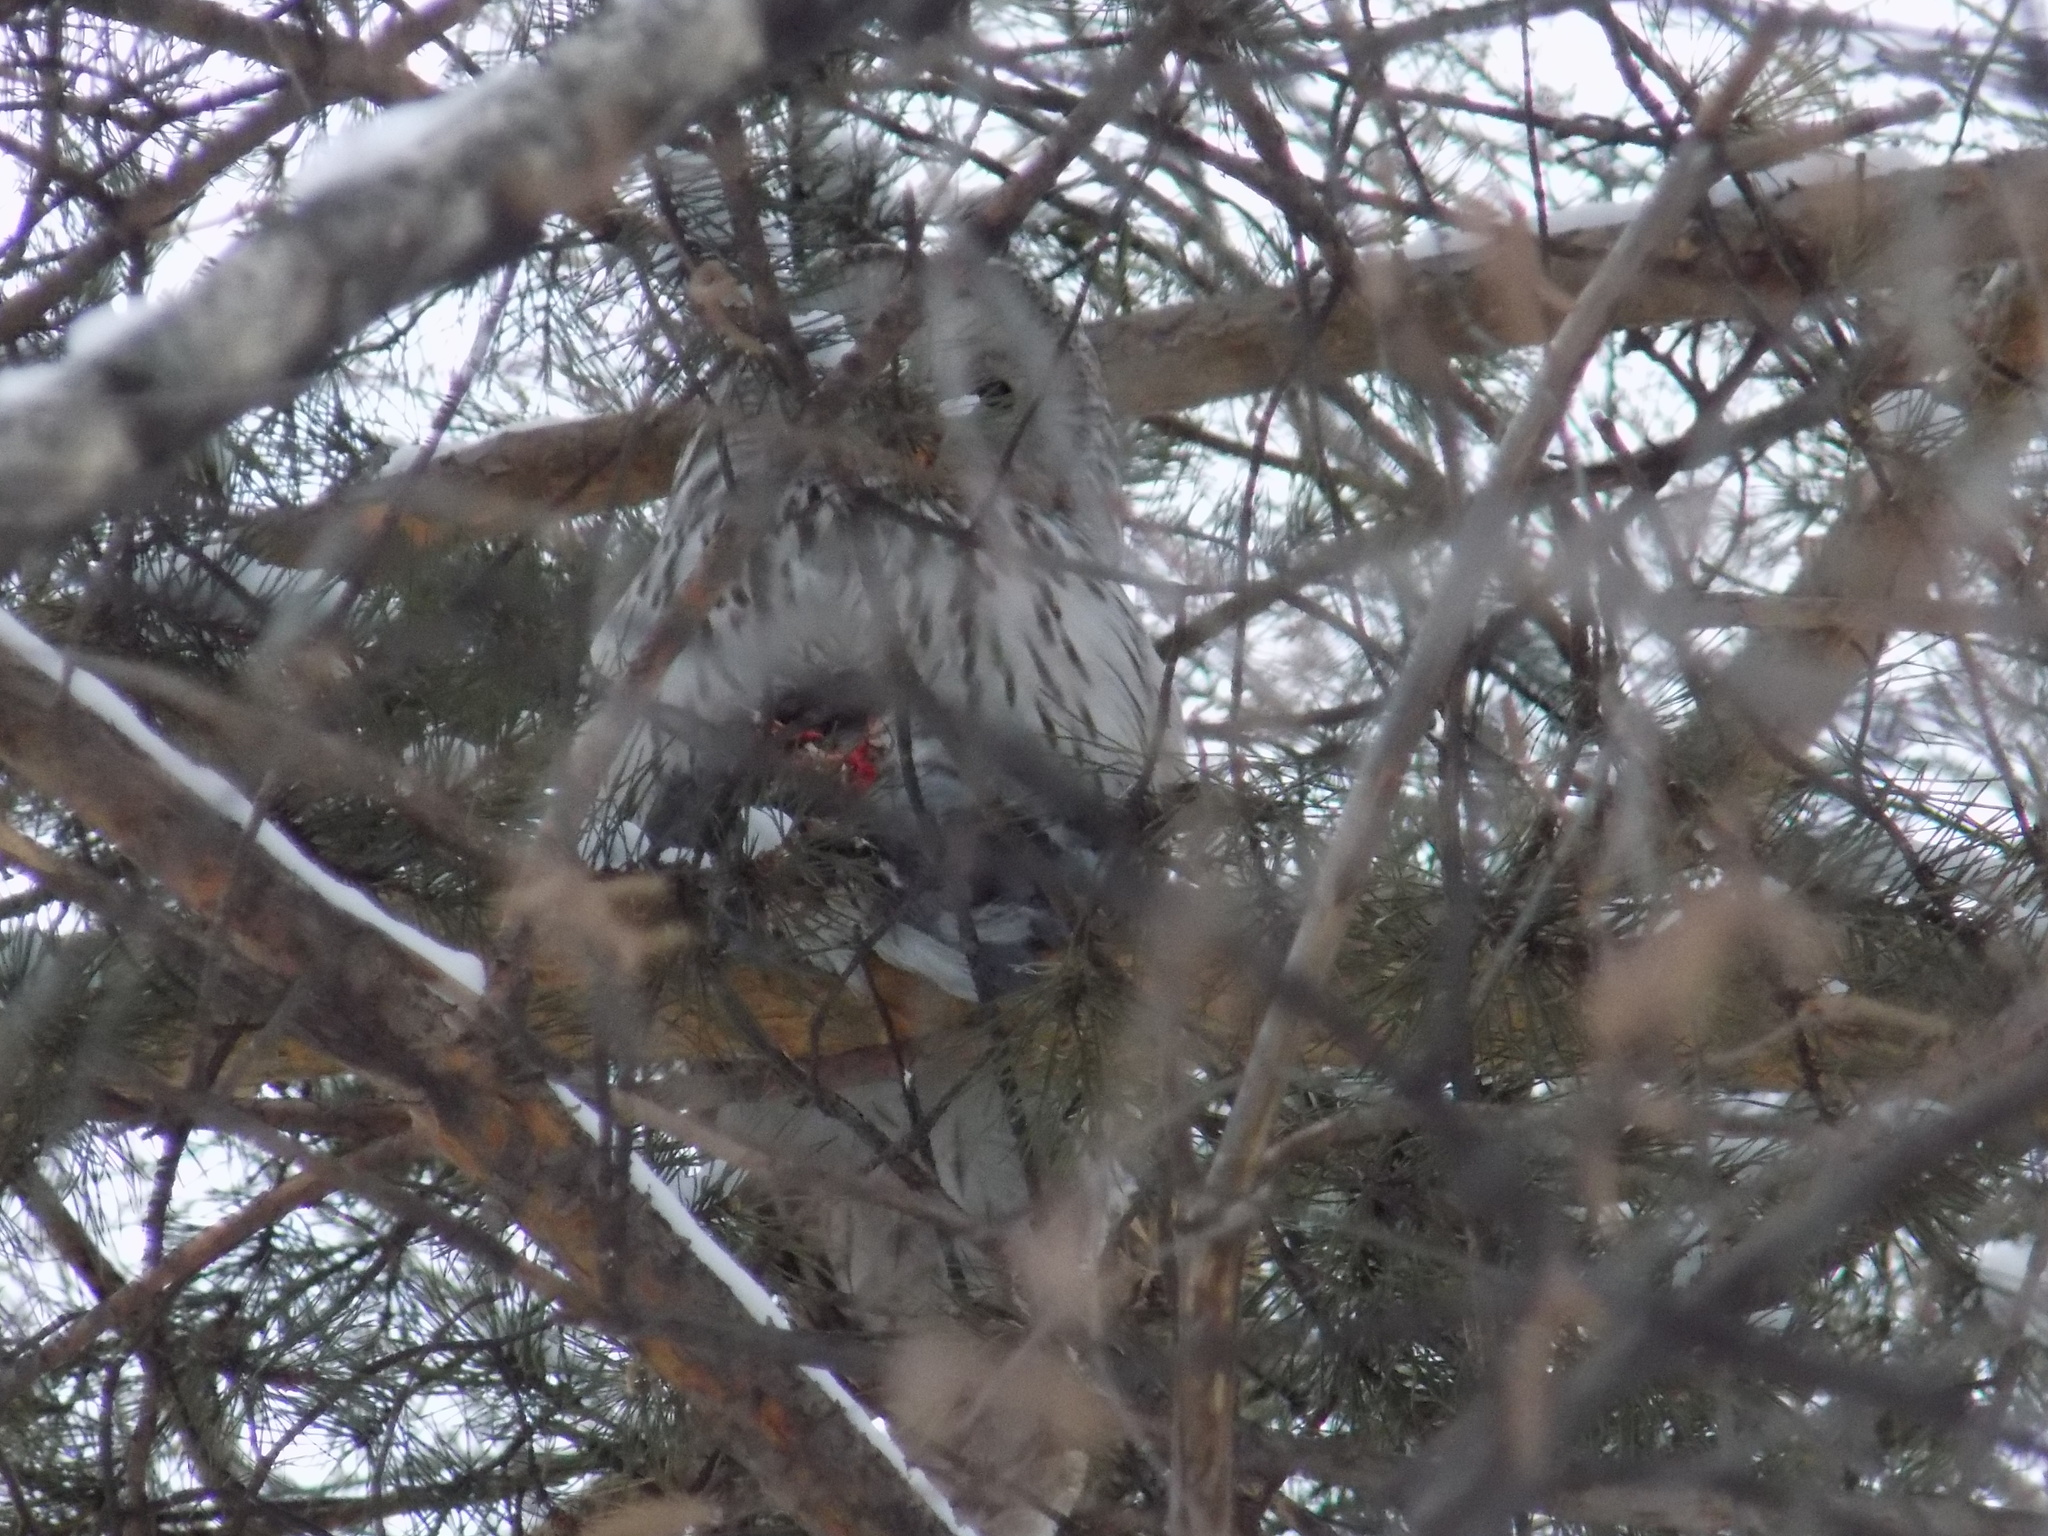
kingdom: Animalia
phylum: Chordata
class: Aves
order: Strigiformes
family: Strigidae
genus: Strix
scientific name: Strix uralensis
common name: Ural owl
